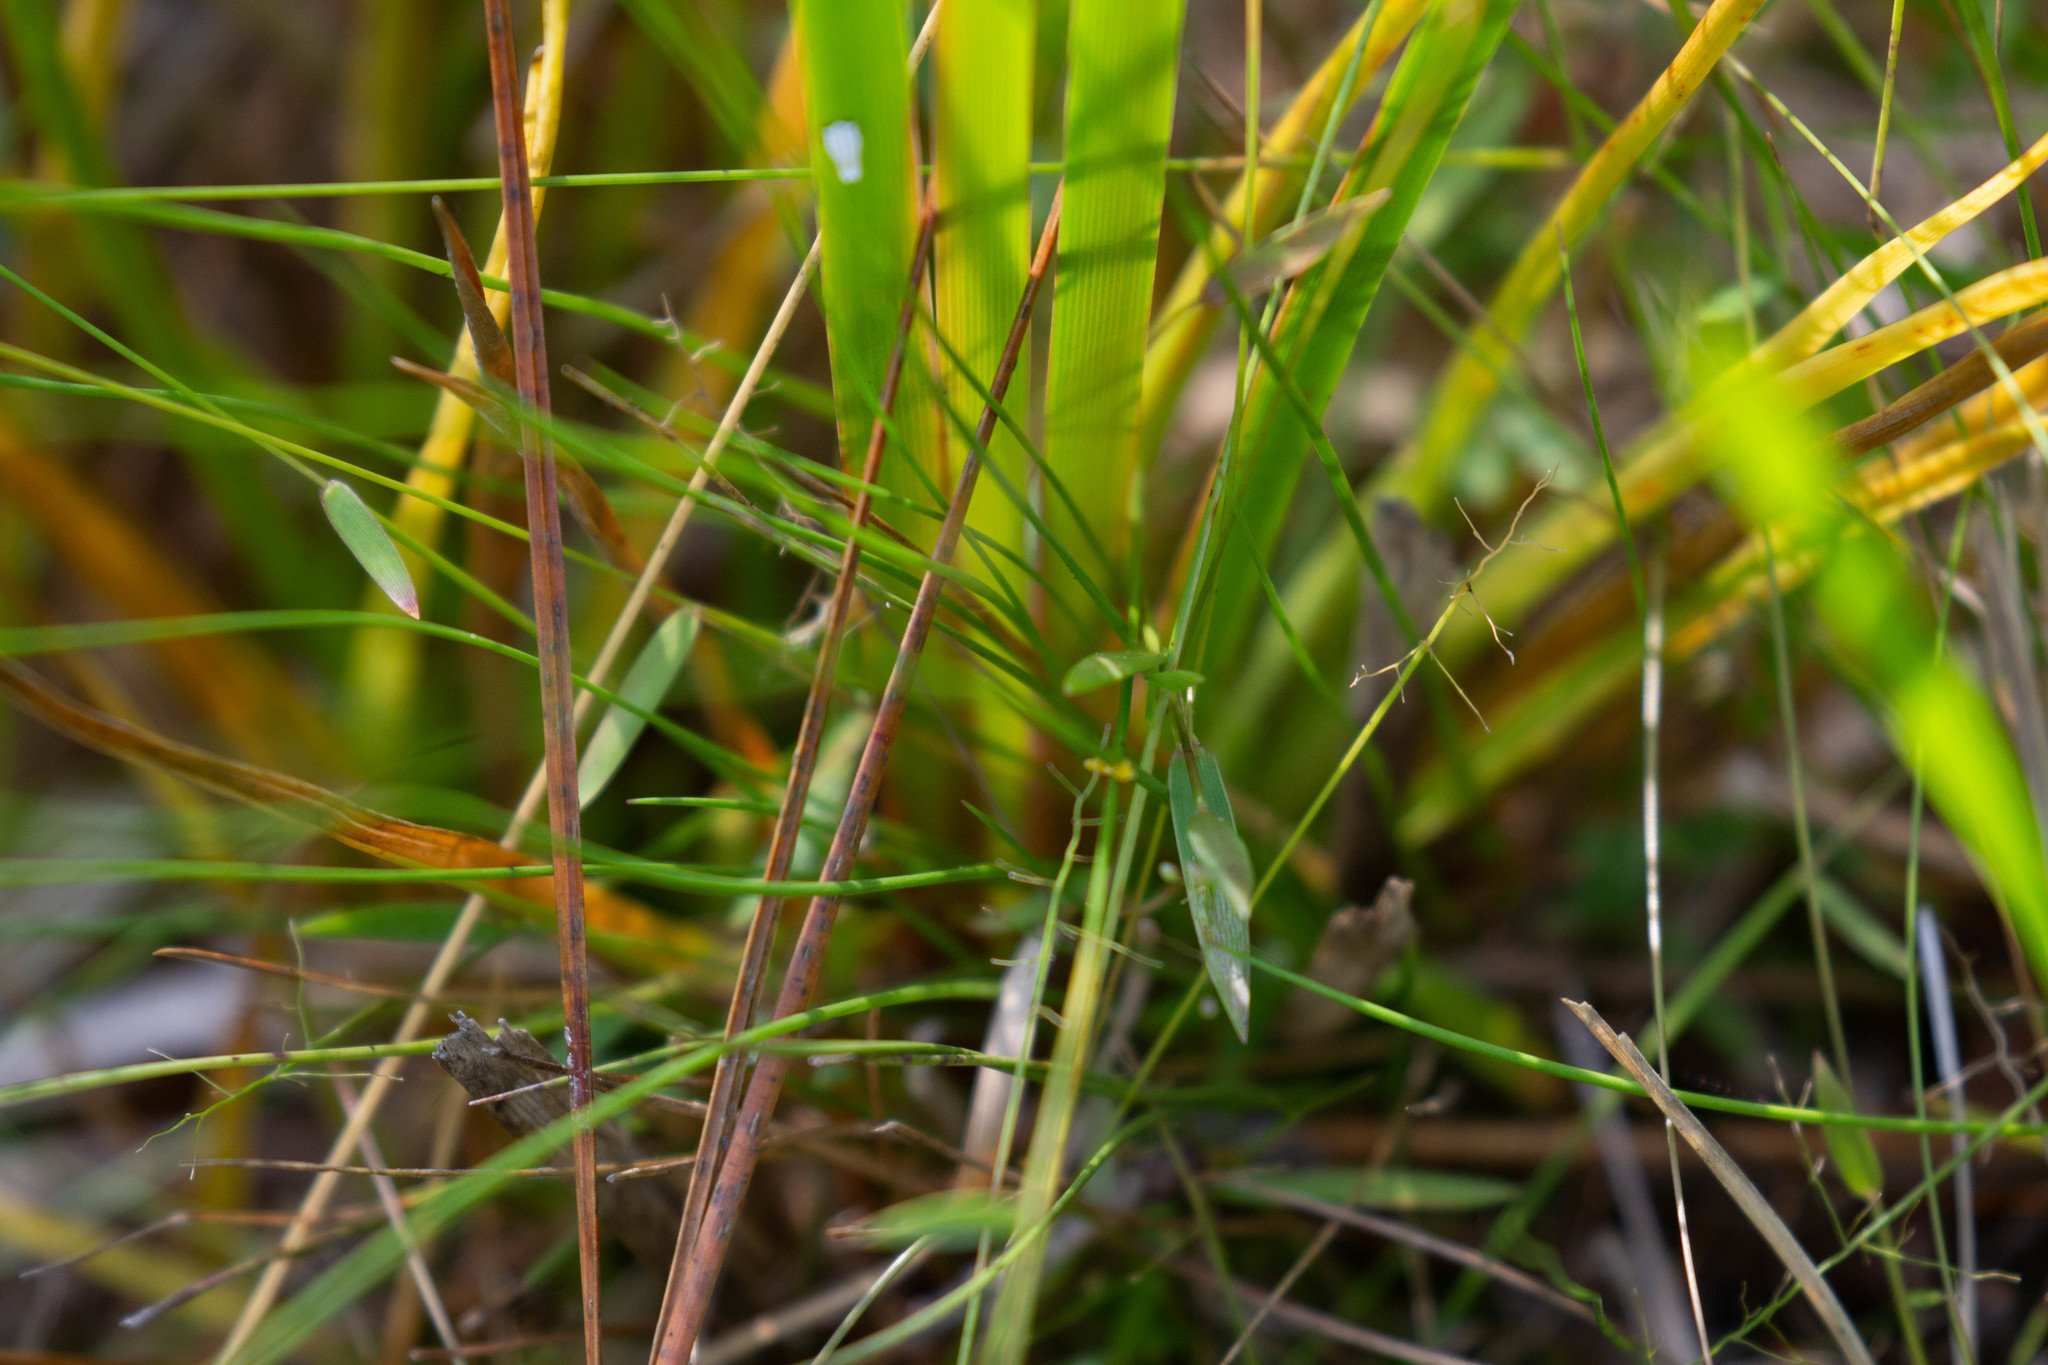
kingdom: Plantae
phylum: Tracheophyta
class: Liliopsida
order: Poales
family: Xyridaceae
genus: Xyris
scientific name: Xyris baldwiniana
